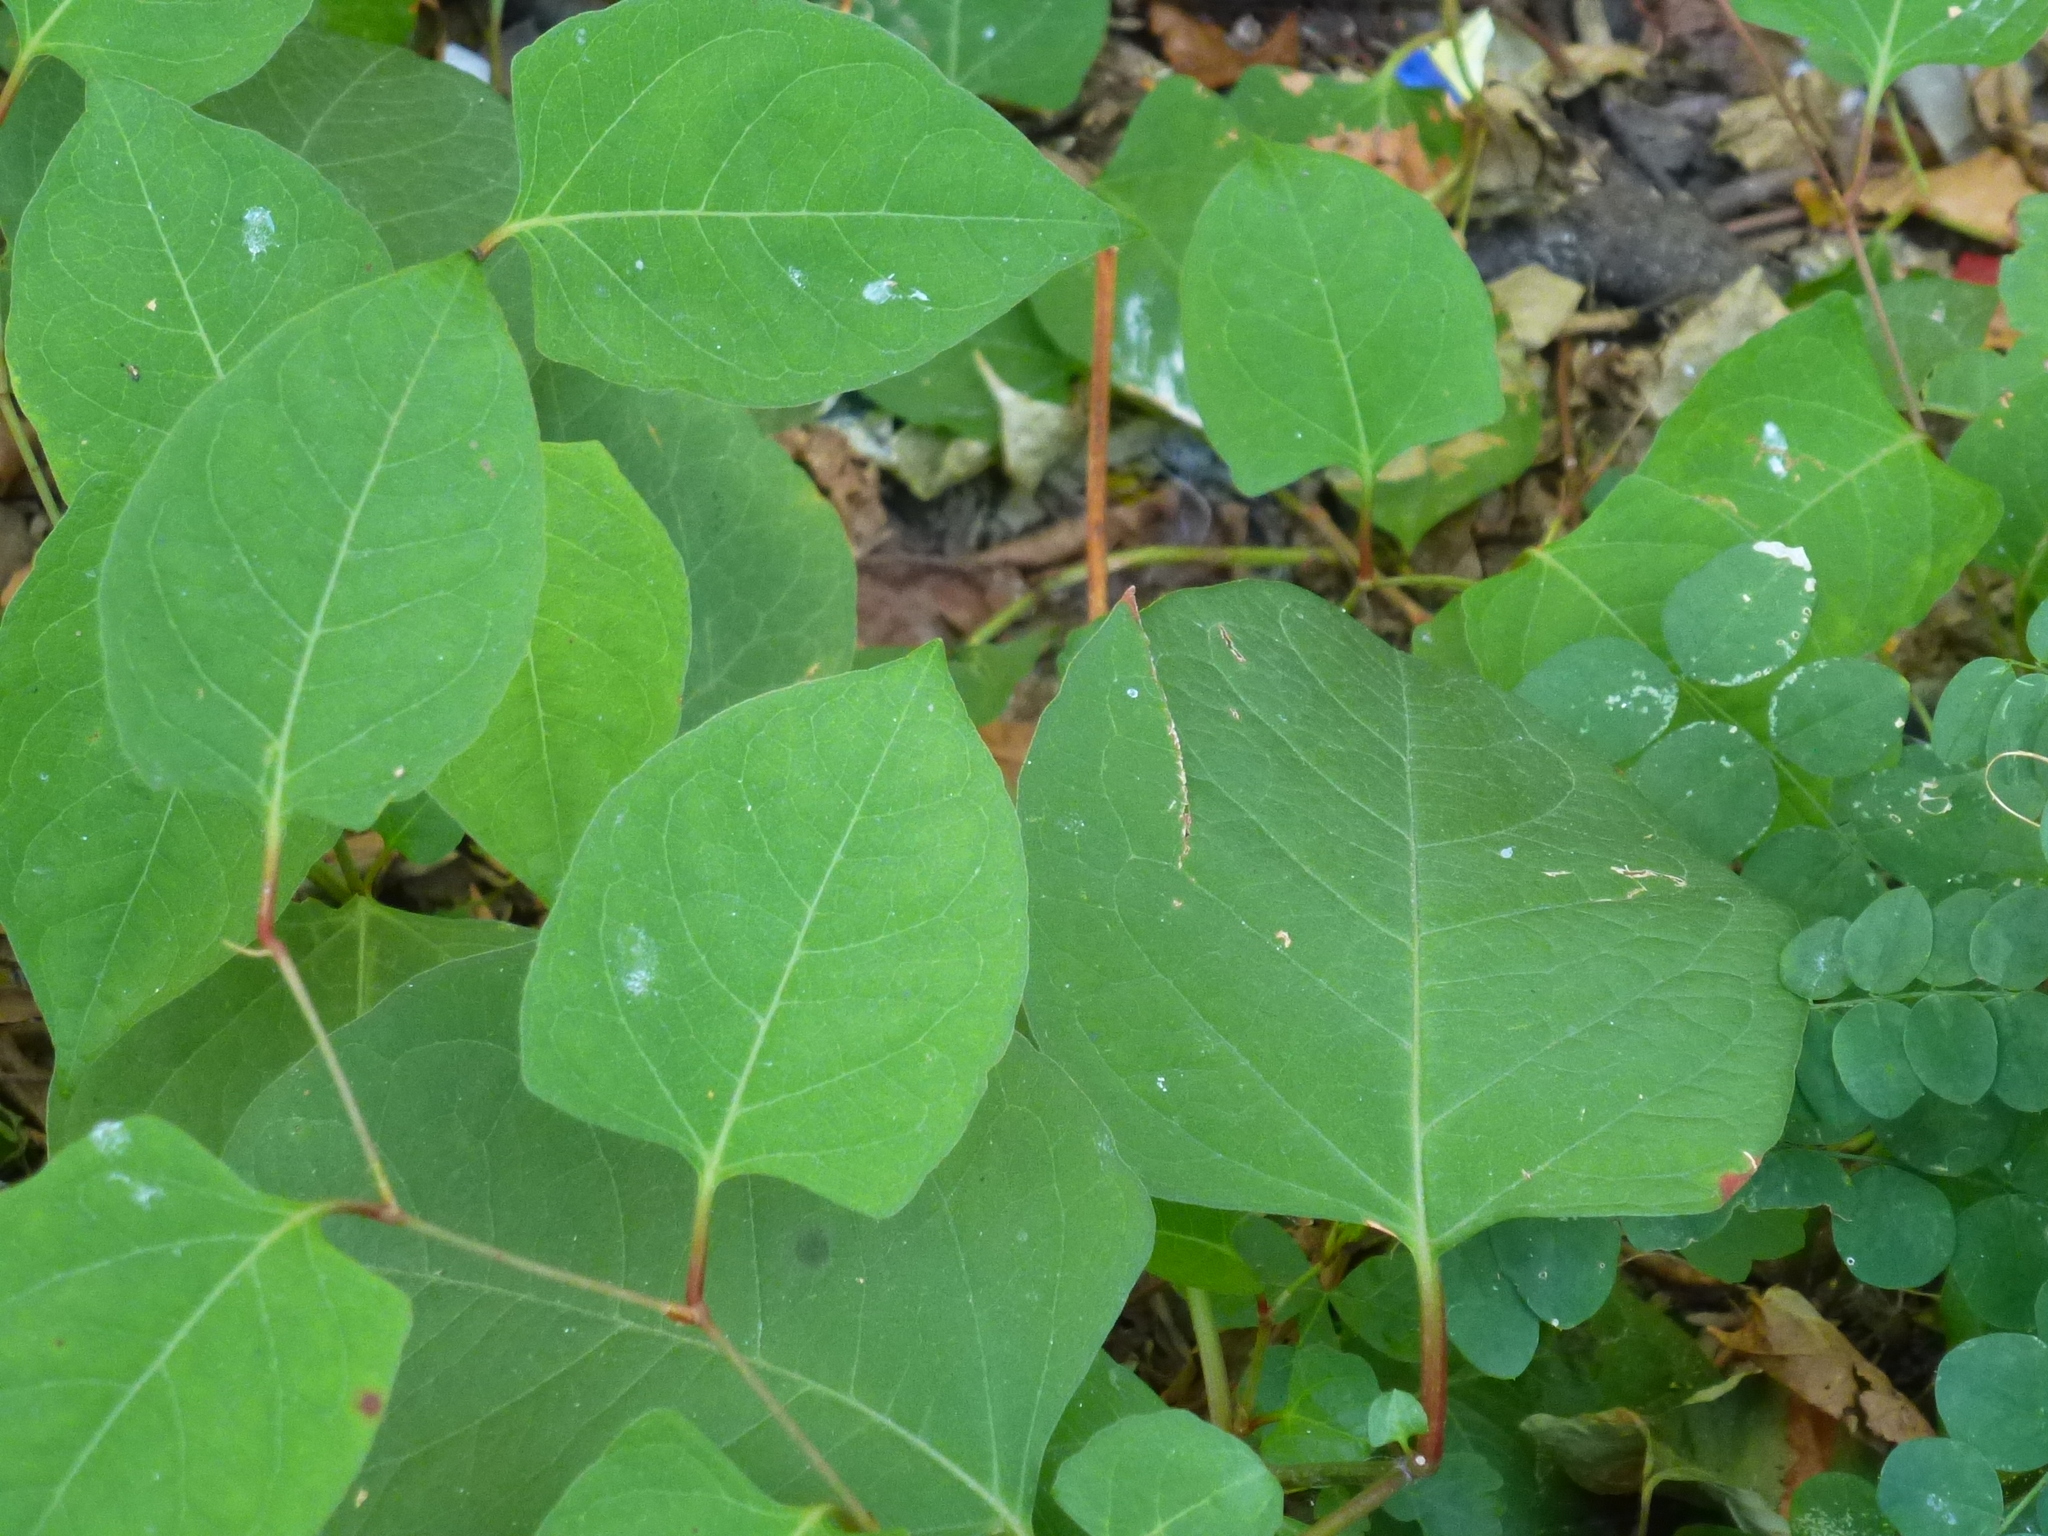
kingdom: Plantae
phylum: Tracheophyta
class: Magnoliopsida
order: Caryophyllales
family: Polygonaceae
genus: Reynoutria
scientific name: Reynoutria japonica
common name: Japanese knotweed
